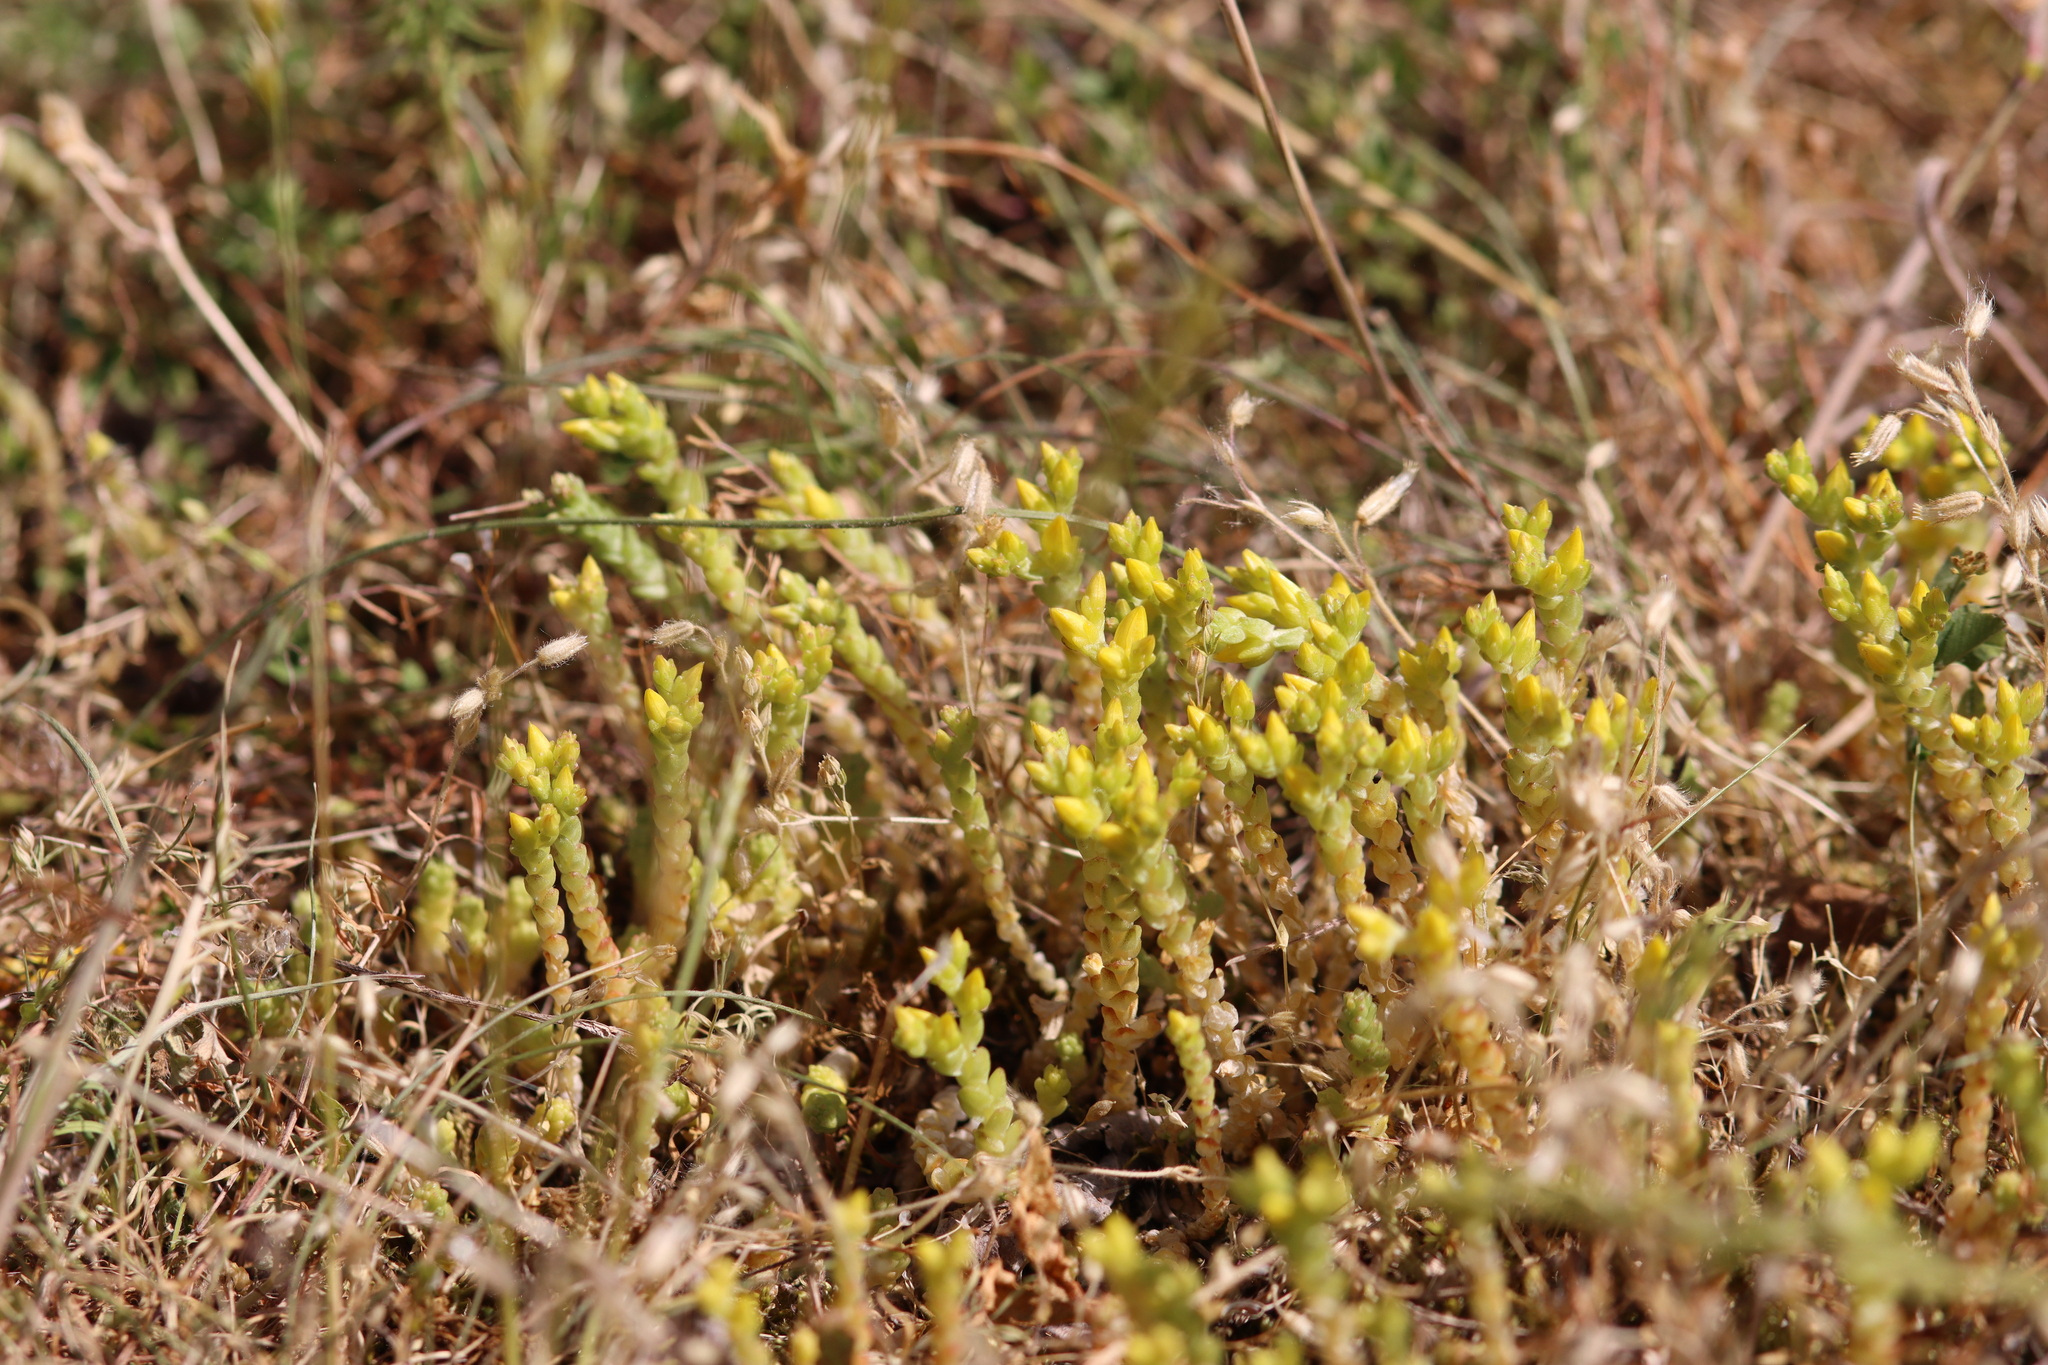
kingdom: Plantae
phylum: Tracheophyta
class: Magnoliopsida
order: Saxifragales
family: Crassulaceae
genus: Sedum
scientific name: Sedum acre
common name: Biting stonecrop
